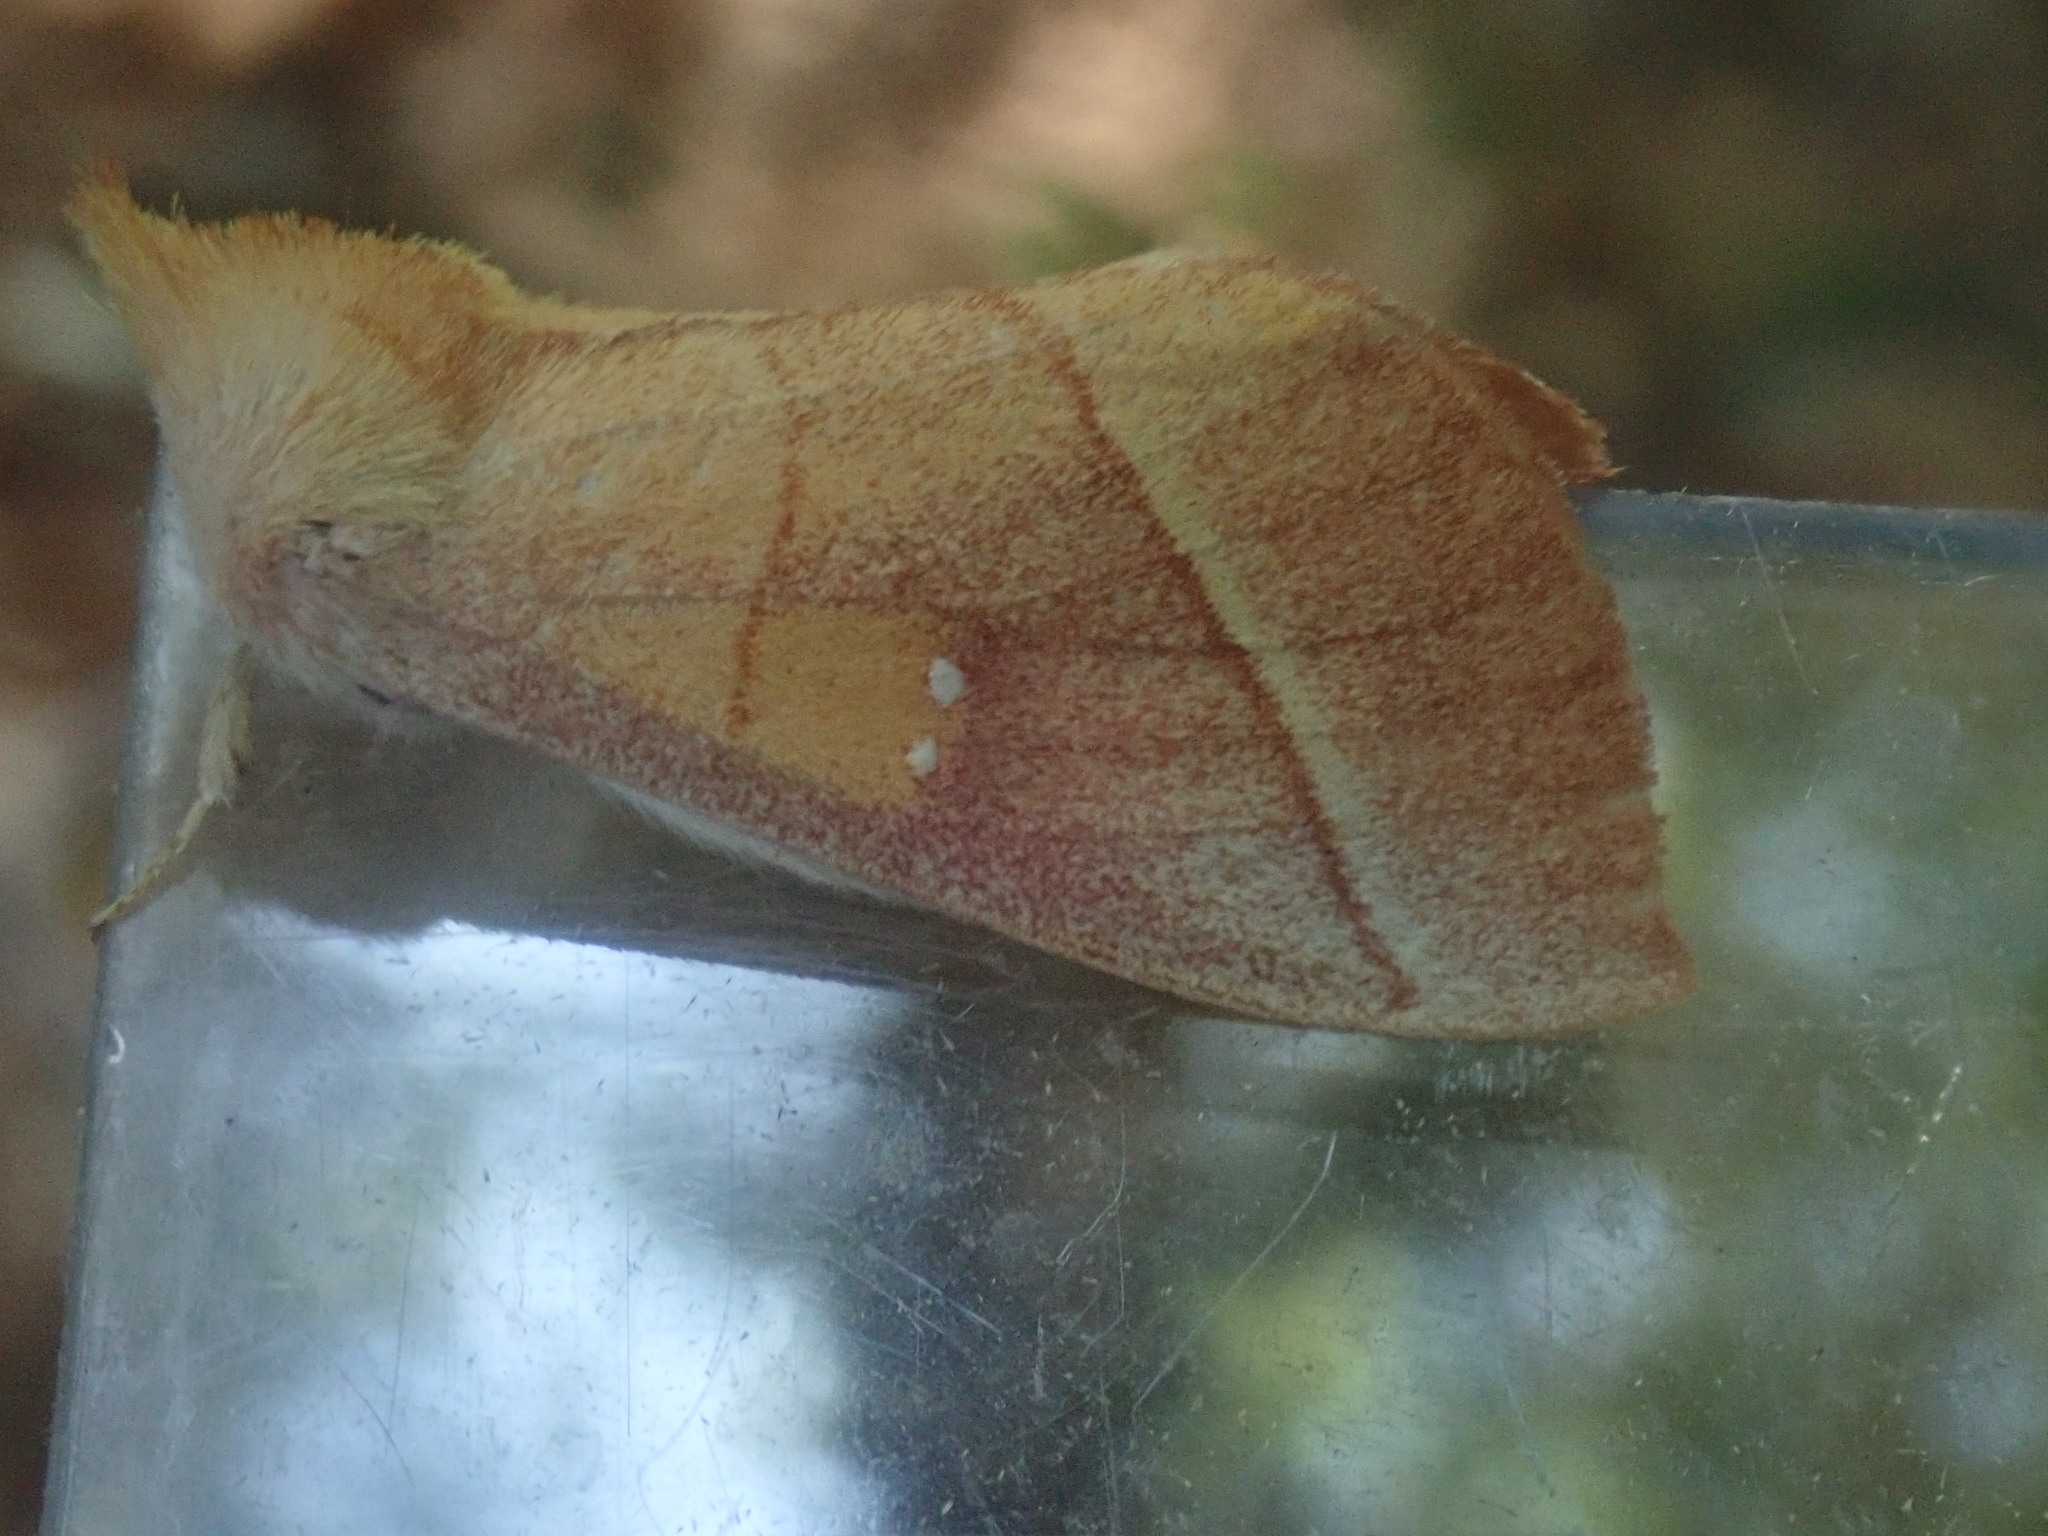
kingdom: Animalia
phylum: Arthropoda
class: Insecta
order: Lepidoptera
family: Notodontidae
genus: Nadata
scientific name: Nadata gibbosa
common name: White-dotted prominent
